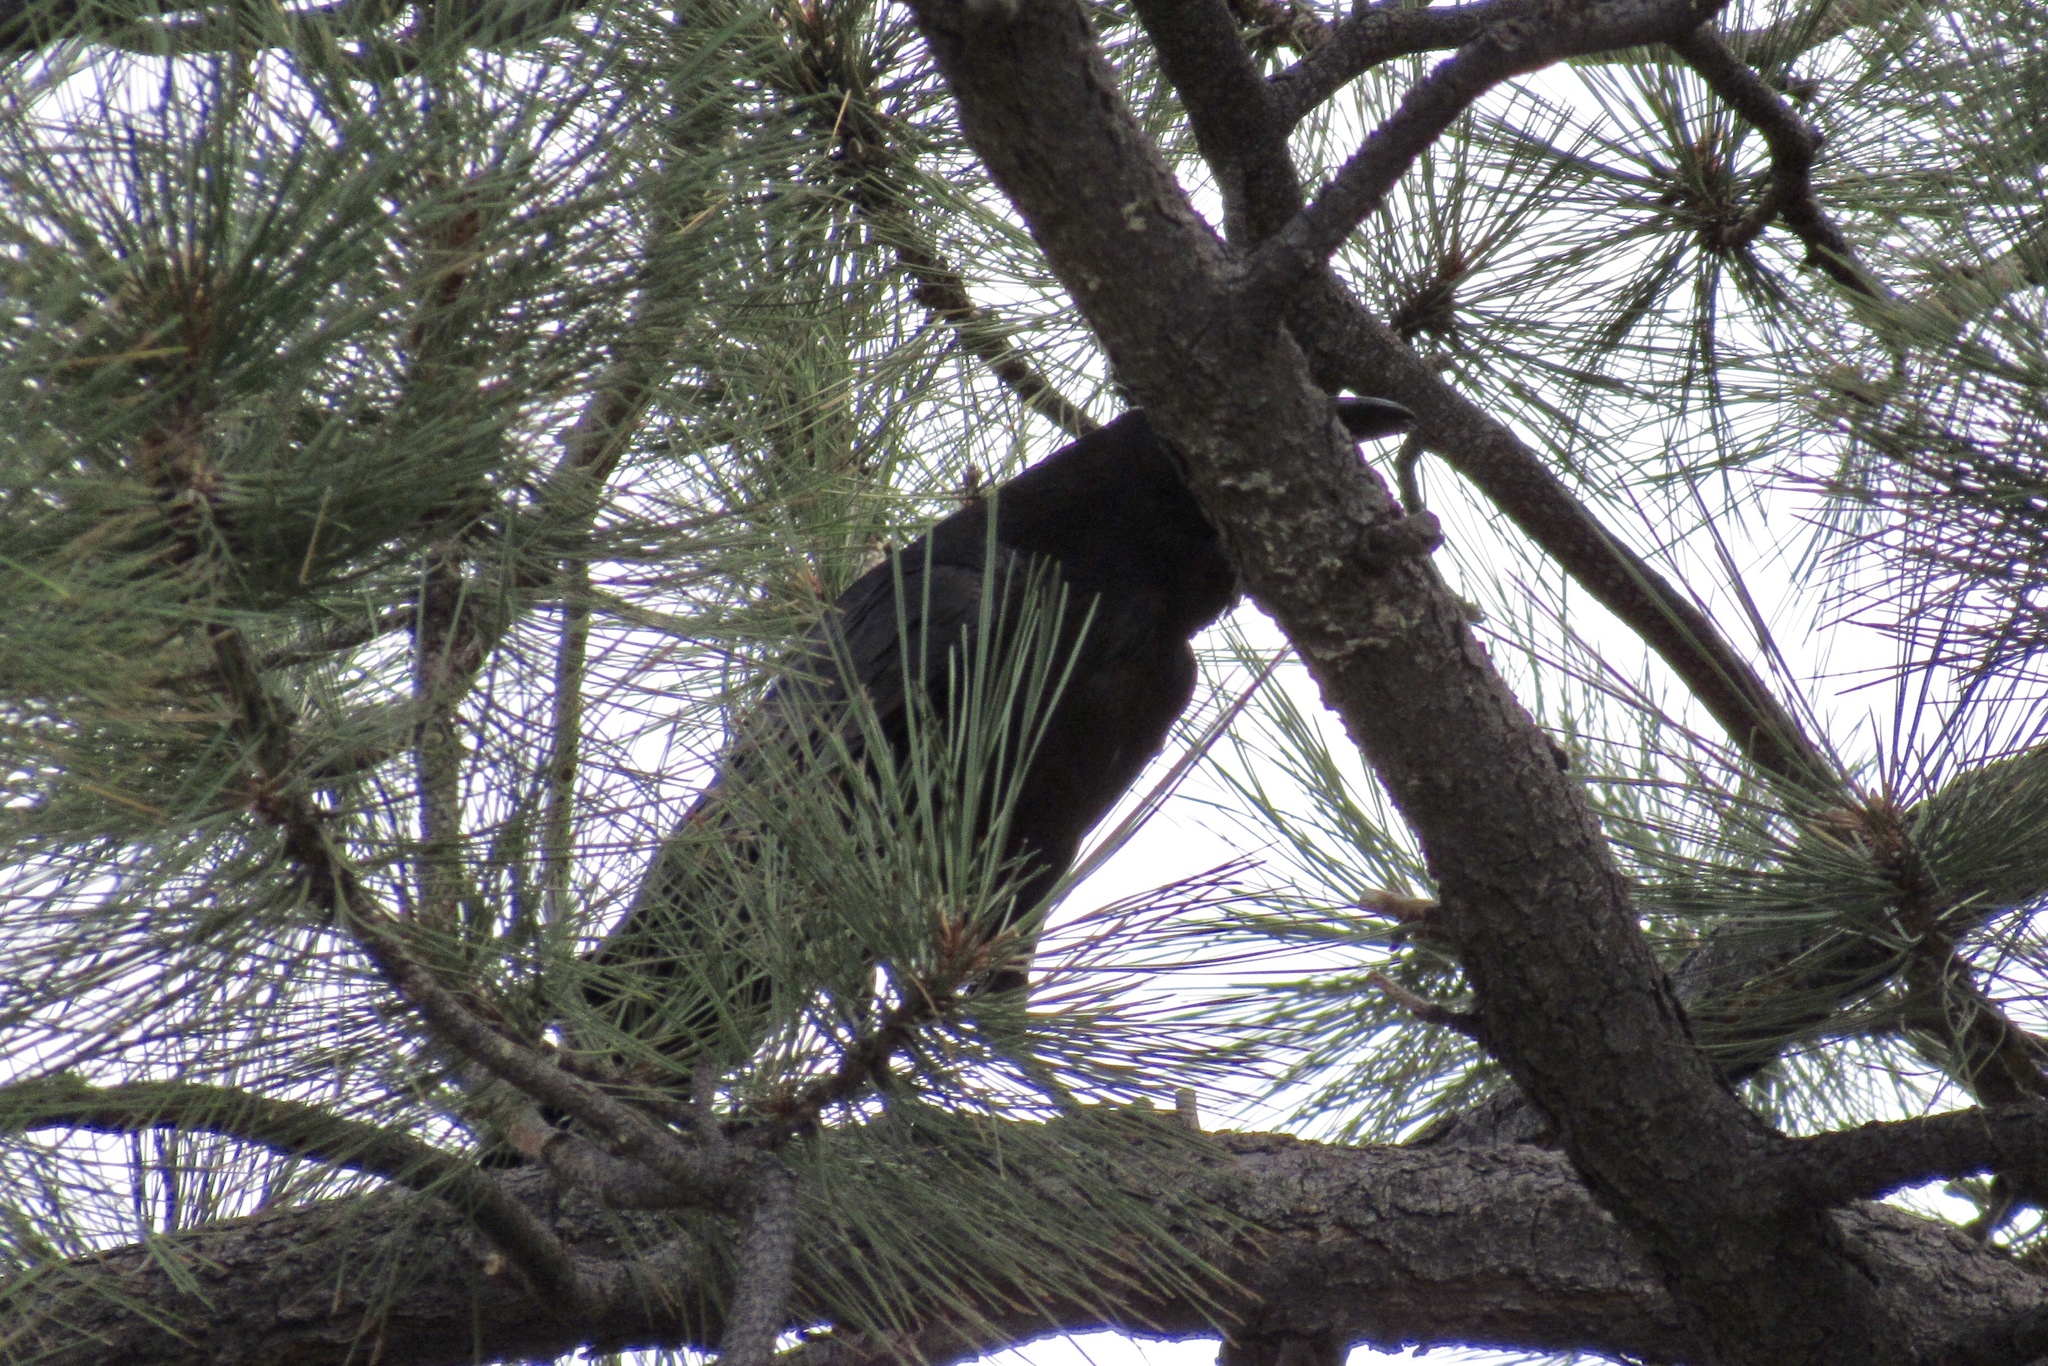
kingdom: Animalia
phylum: Chordata
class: Aves
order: Passeriformes
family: Corvidae
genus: Corvus
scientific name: Corvus corax
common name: Common raven
